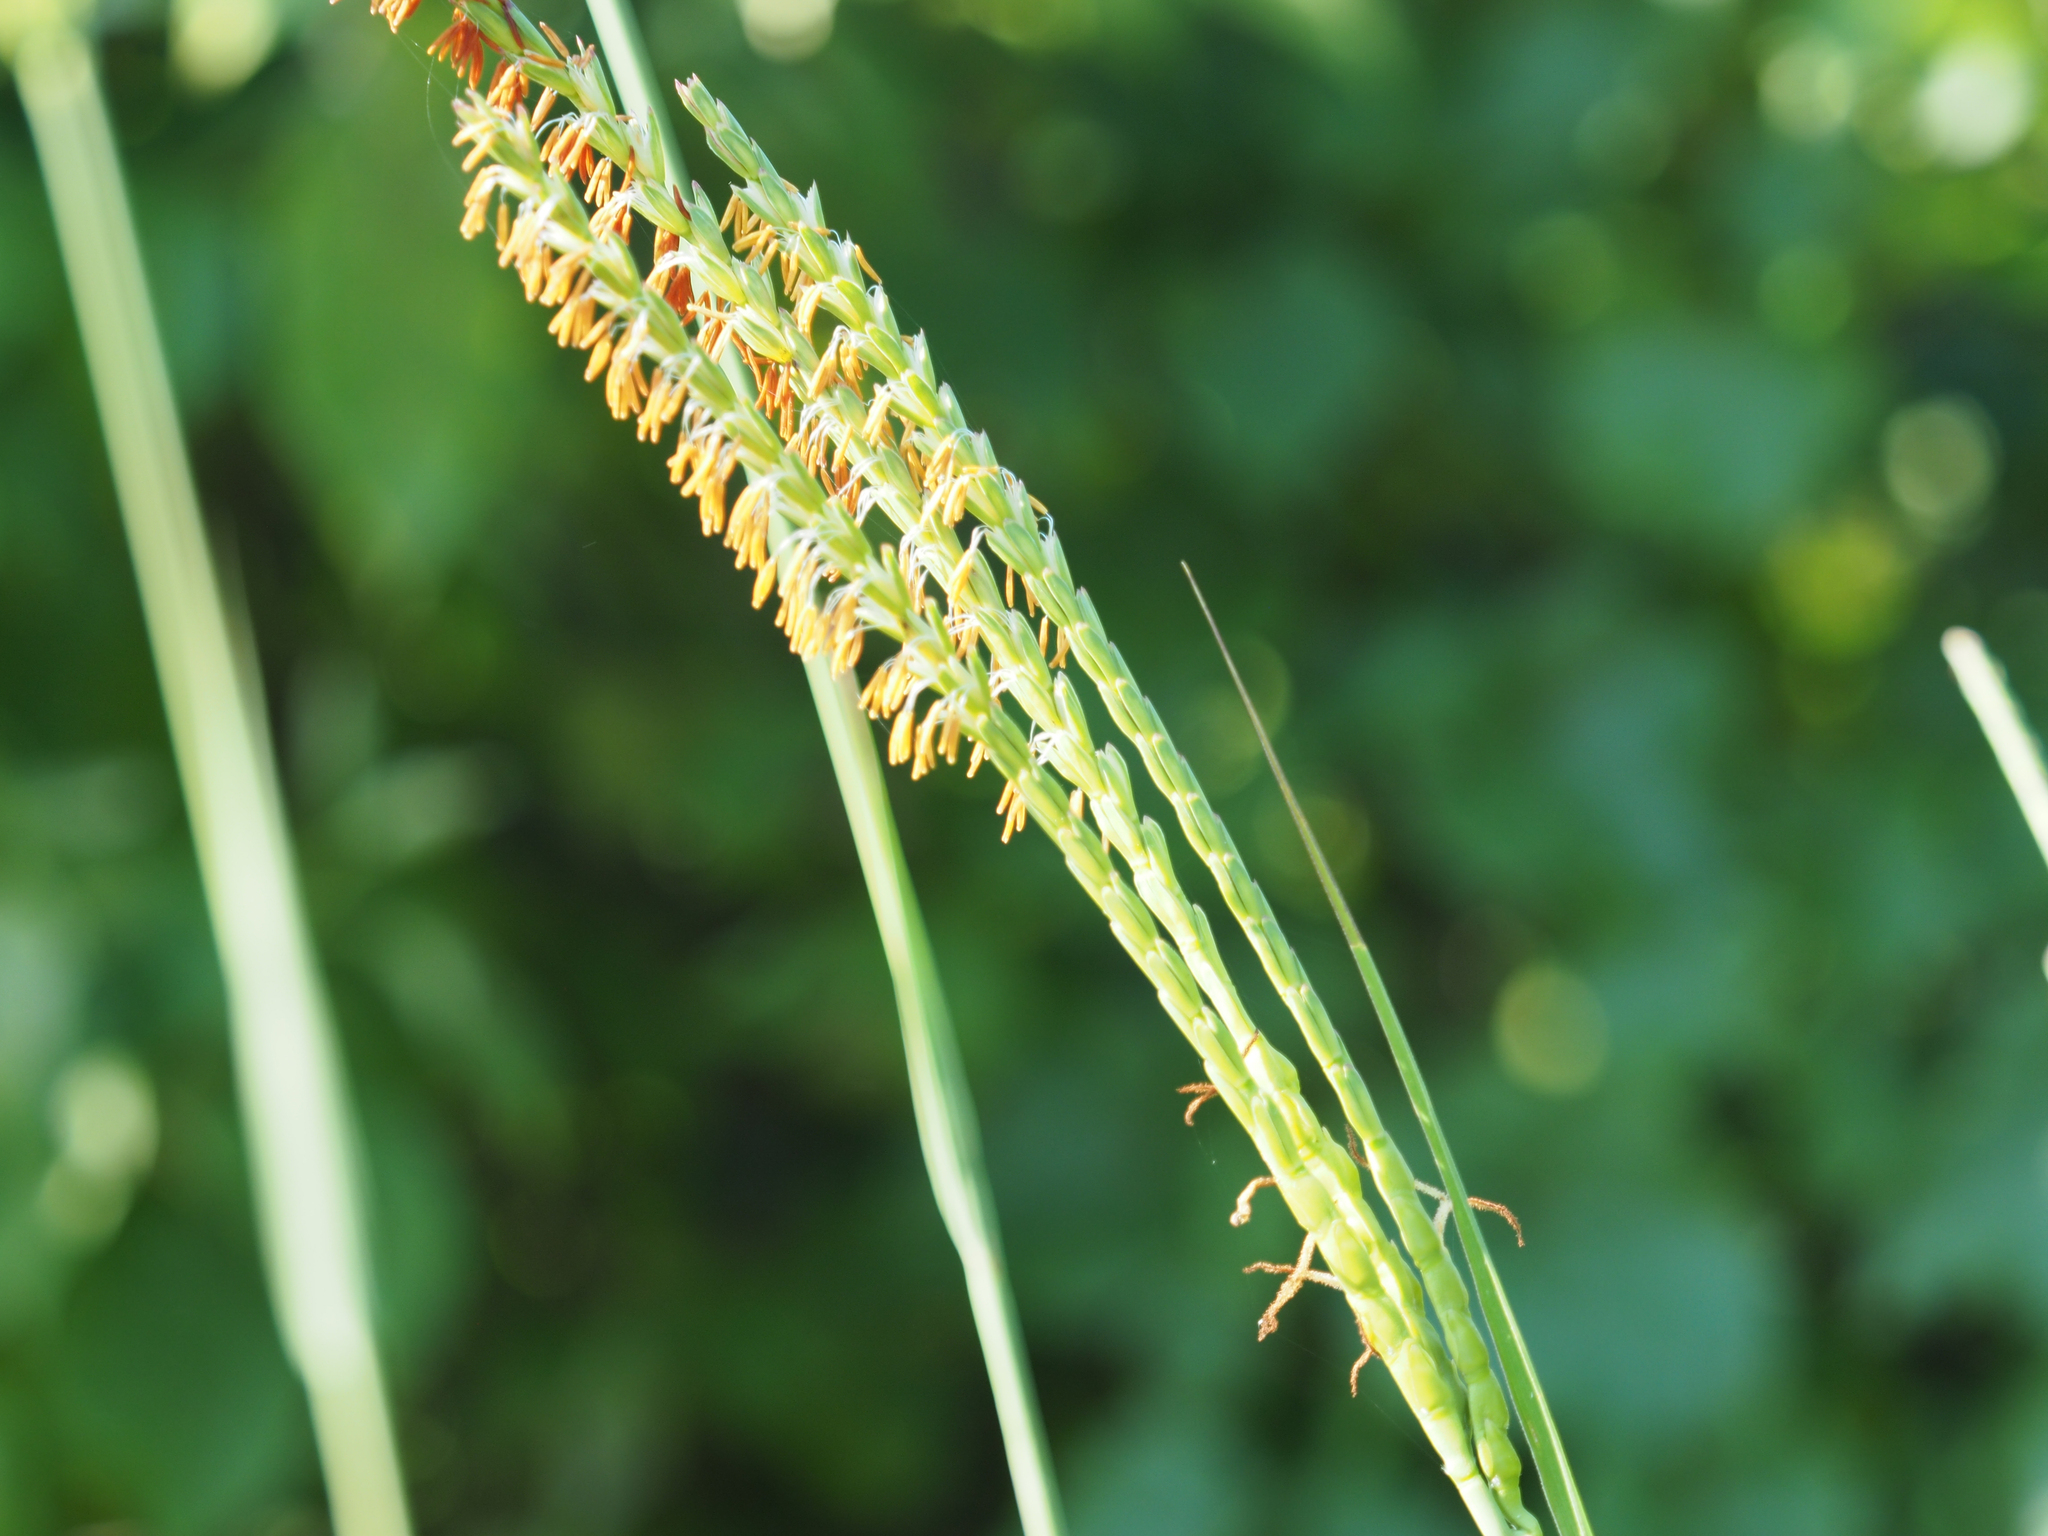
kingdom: Plantae
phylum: Tracheophyta
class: Liliopsida
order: Poales
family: Poaceae
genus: Tripsacum
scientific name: Tripsacum dactyloides
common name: Buffalo-grass
